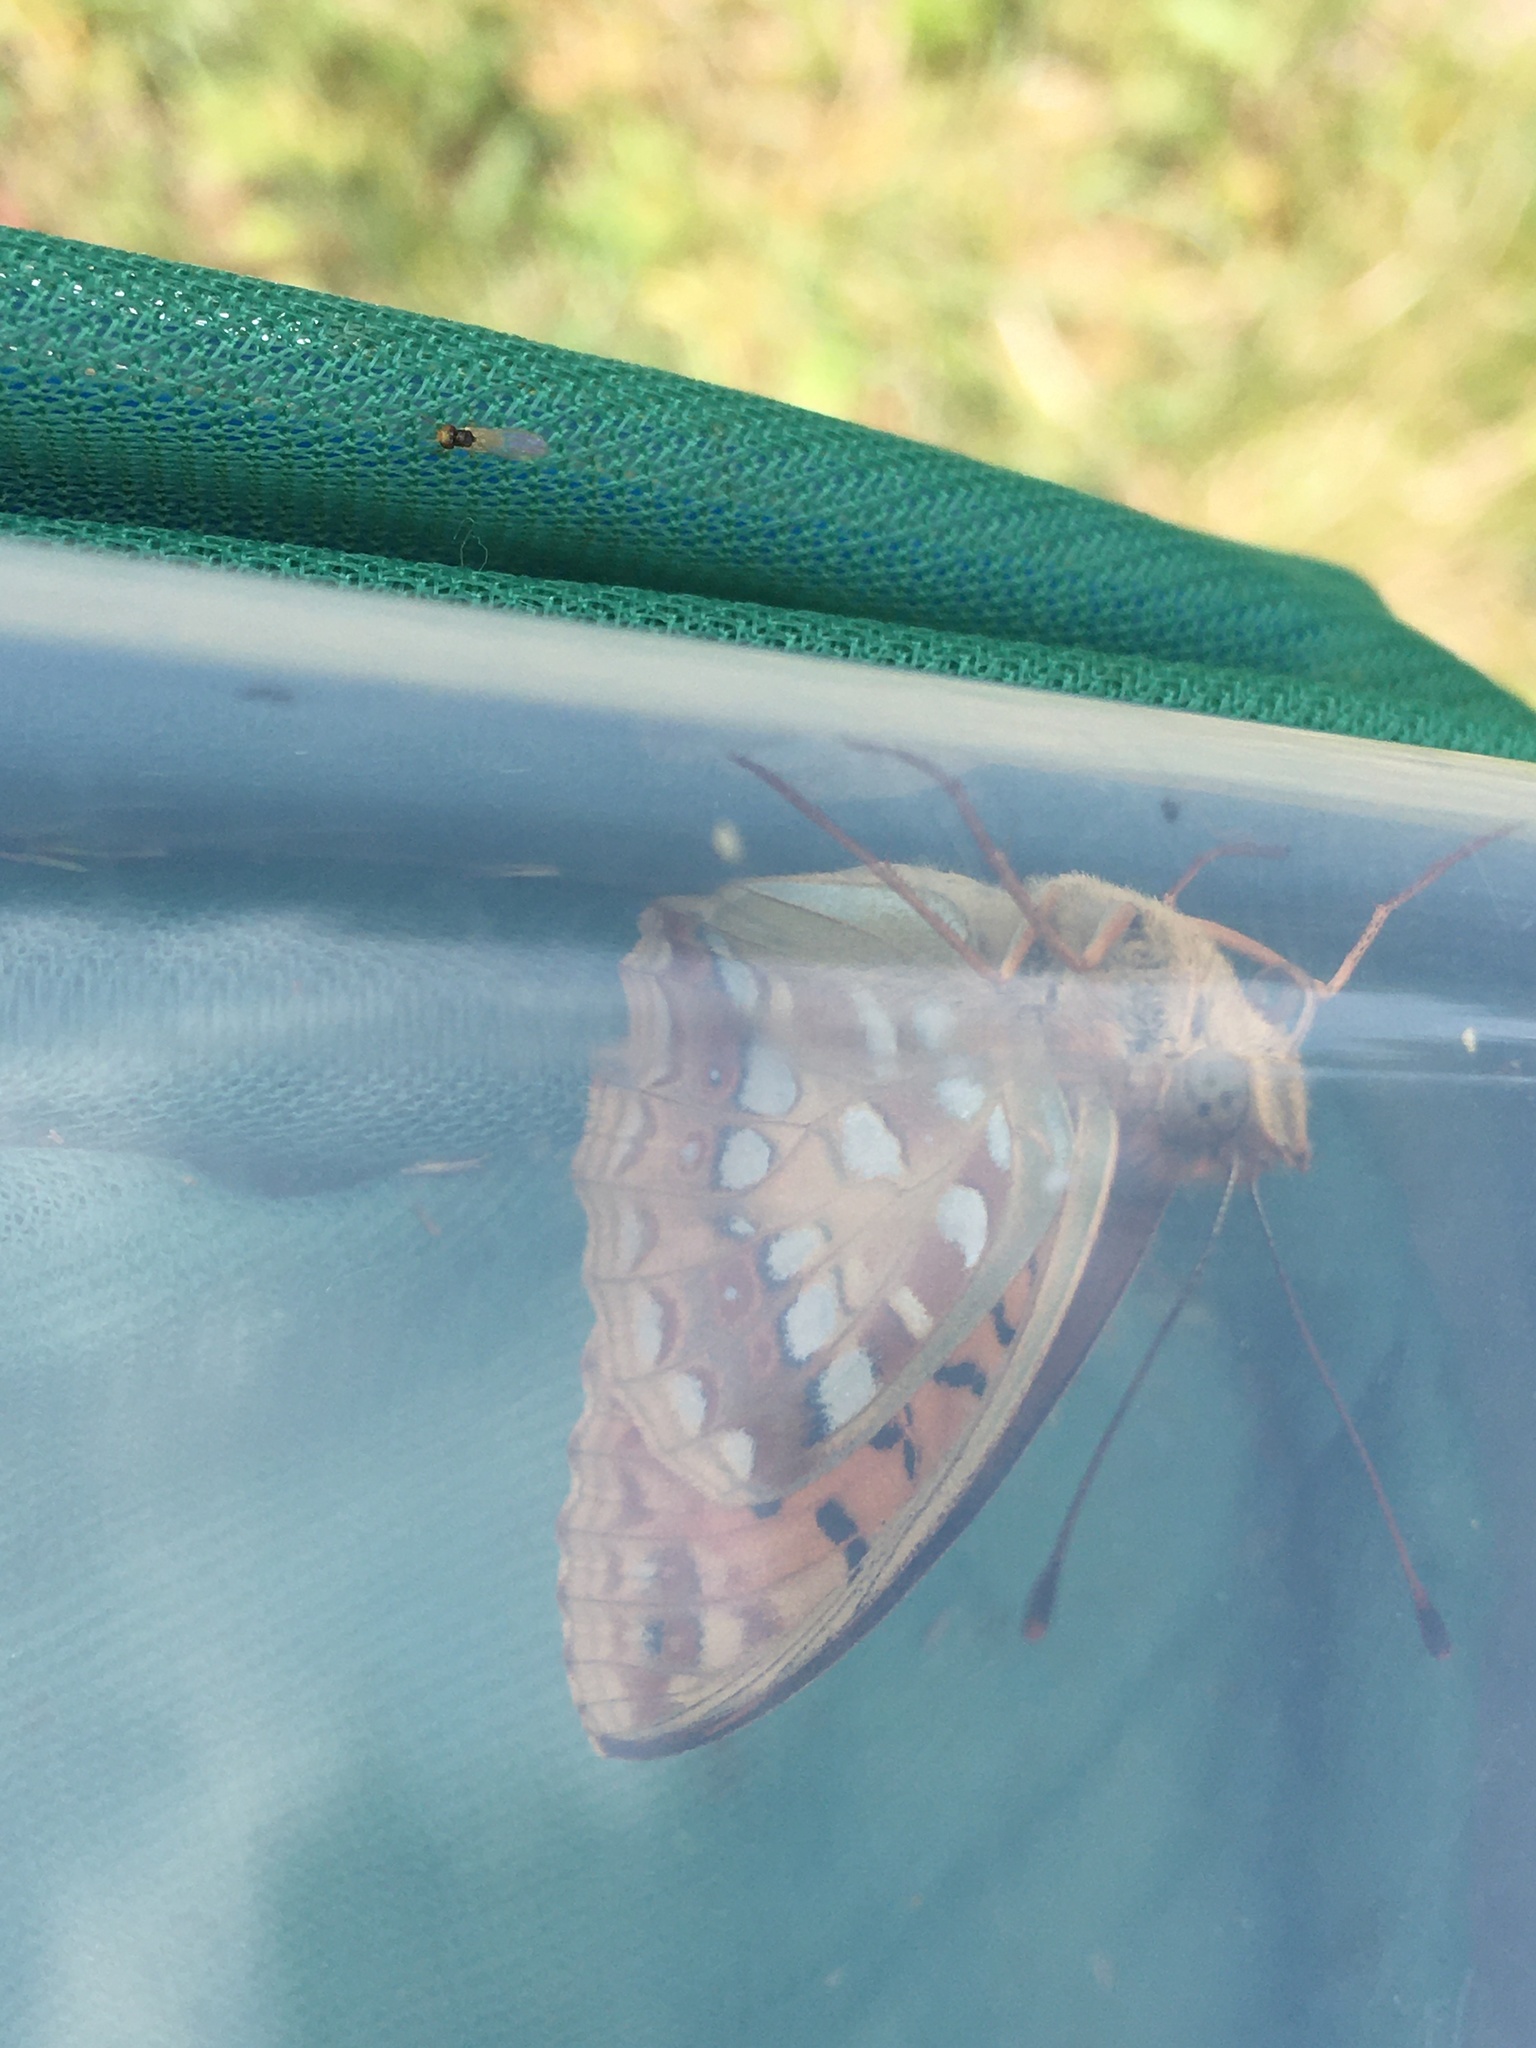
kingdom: Animalia
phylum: Arthropoda
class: Insecta
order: Lepidoptera
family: Nymphalidae
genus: Fabriciana
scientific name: Fabriciana adippe
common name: High brown fritillary
